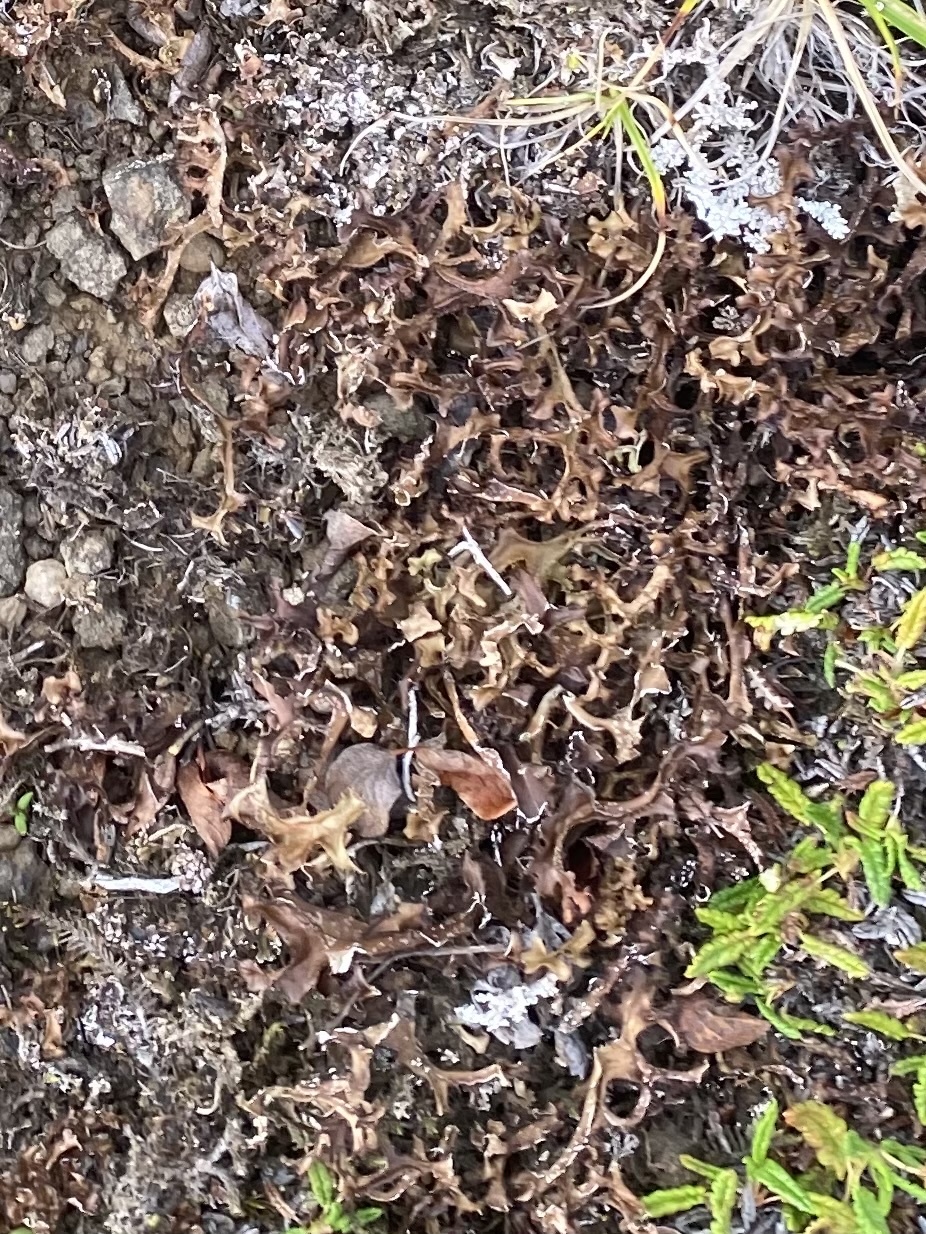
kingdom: Fungi
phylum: Ascomycota
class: Lecanoromycetes
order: Lecanorales
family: Parmeliaceae
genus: Cetraria
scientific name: Cetraria islandica
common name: Iceland lichen
